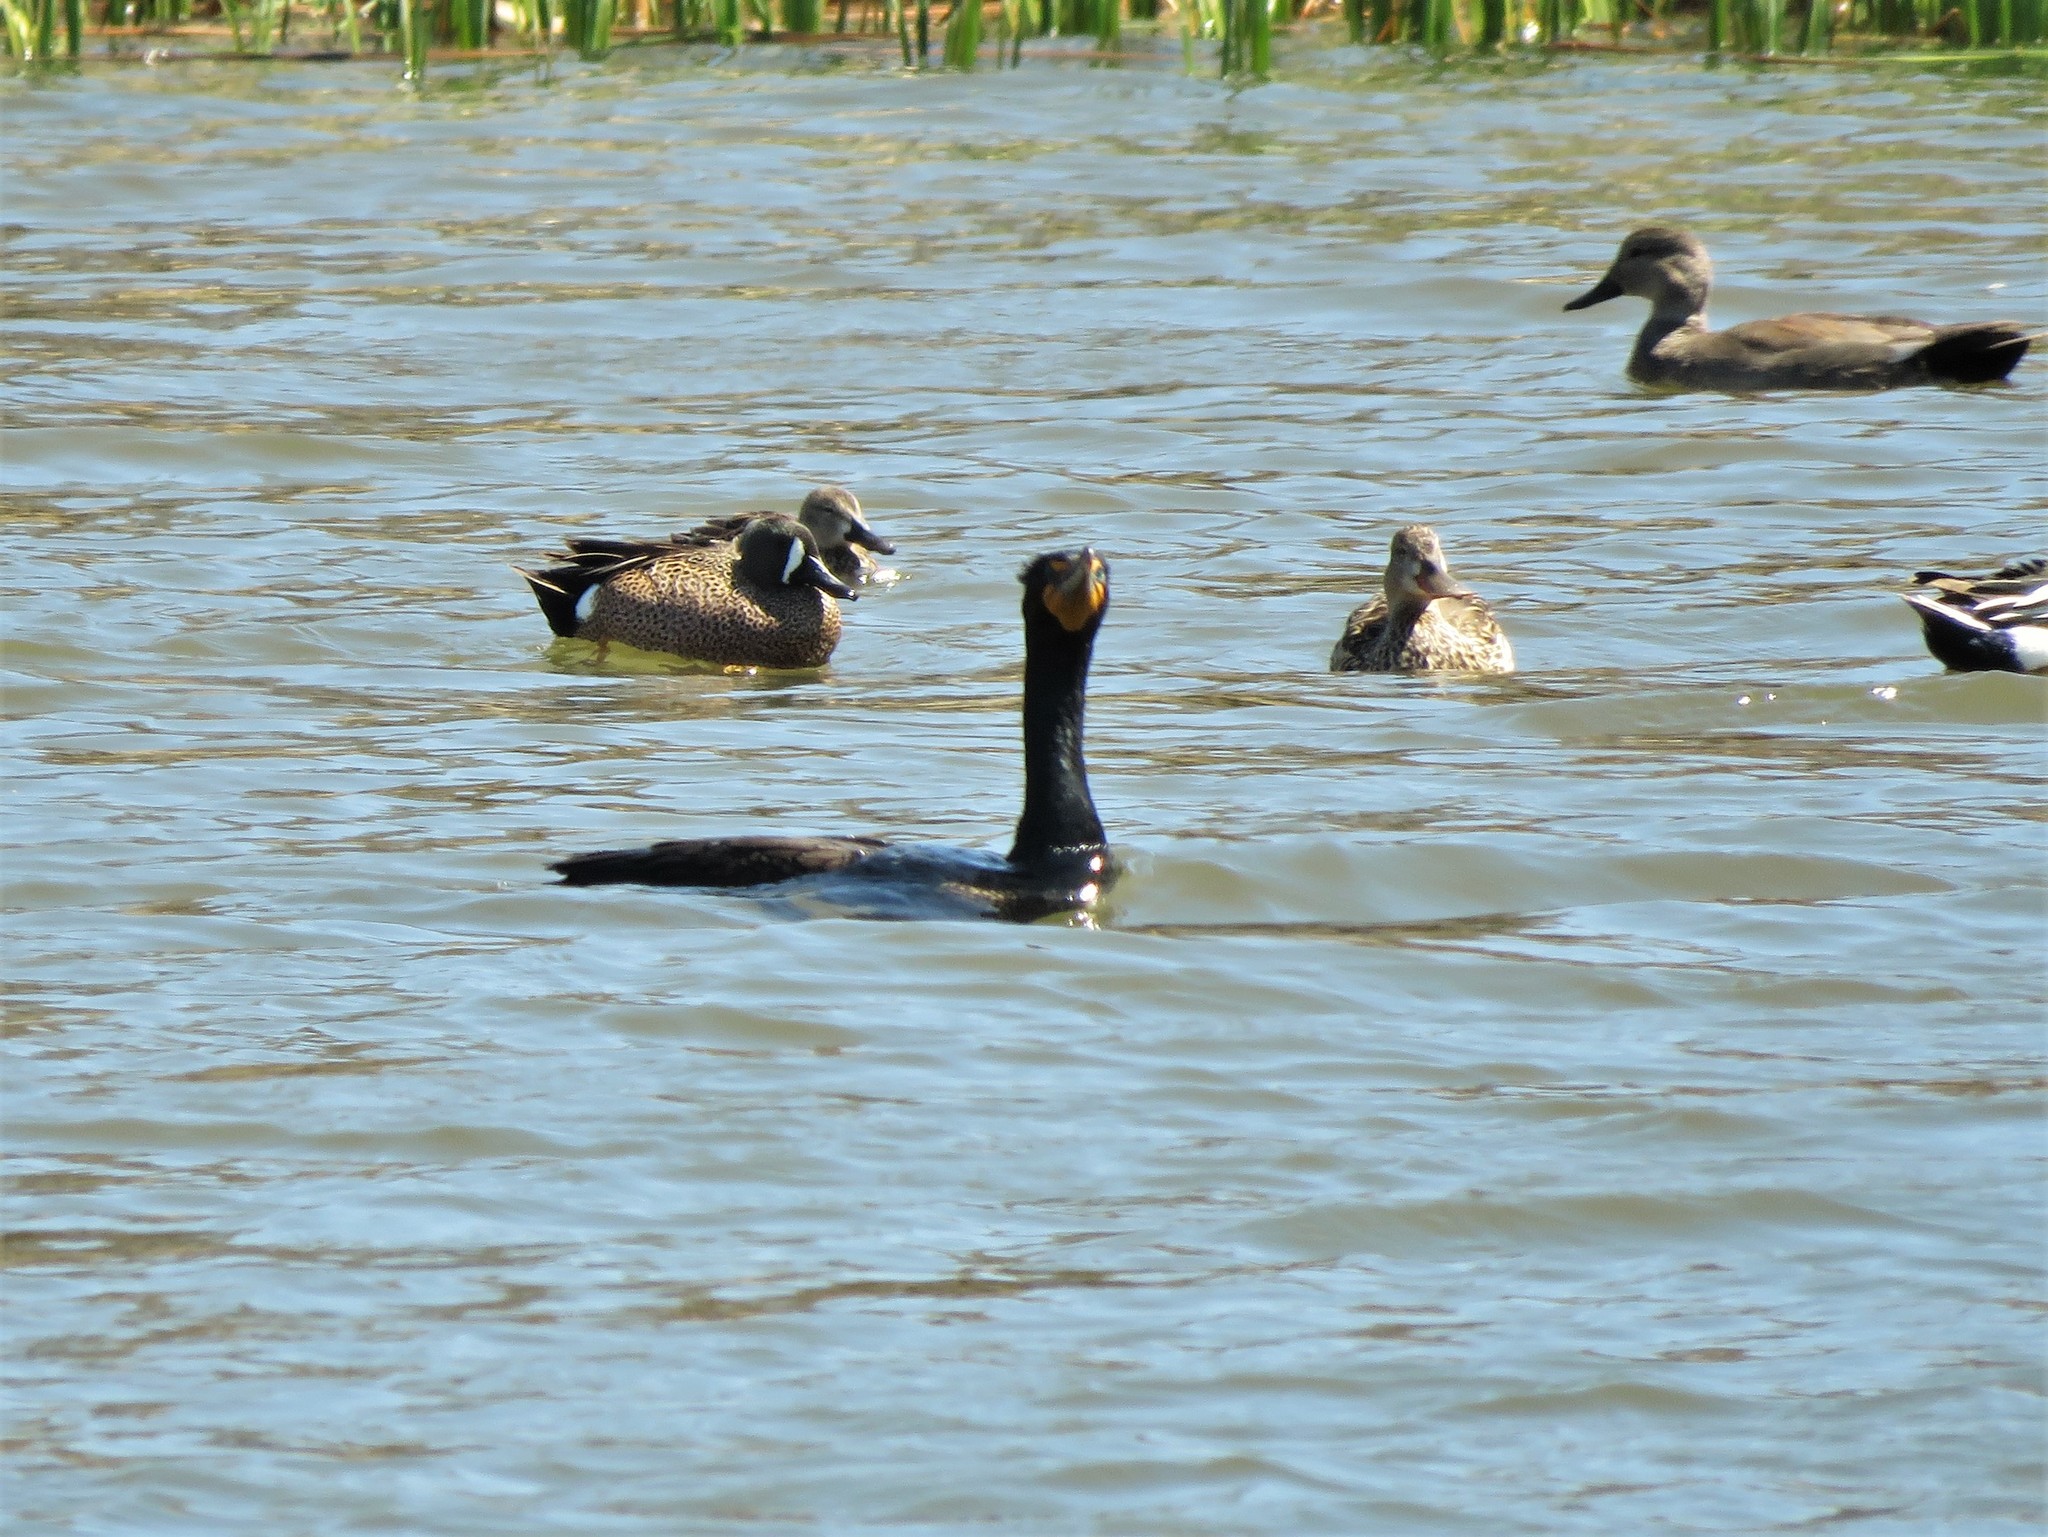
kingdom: Animalia
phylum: Chordata
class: Aves
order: Suliformes
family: Phalacrocoracidae
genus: Phalacrocorax
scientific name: Phalacrocorax auritus
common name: Double-crested cormorant
